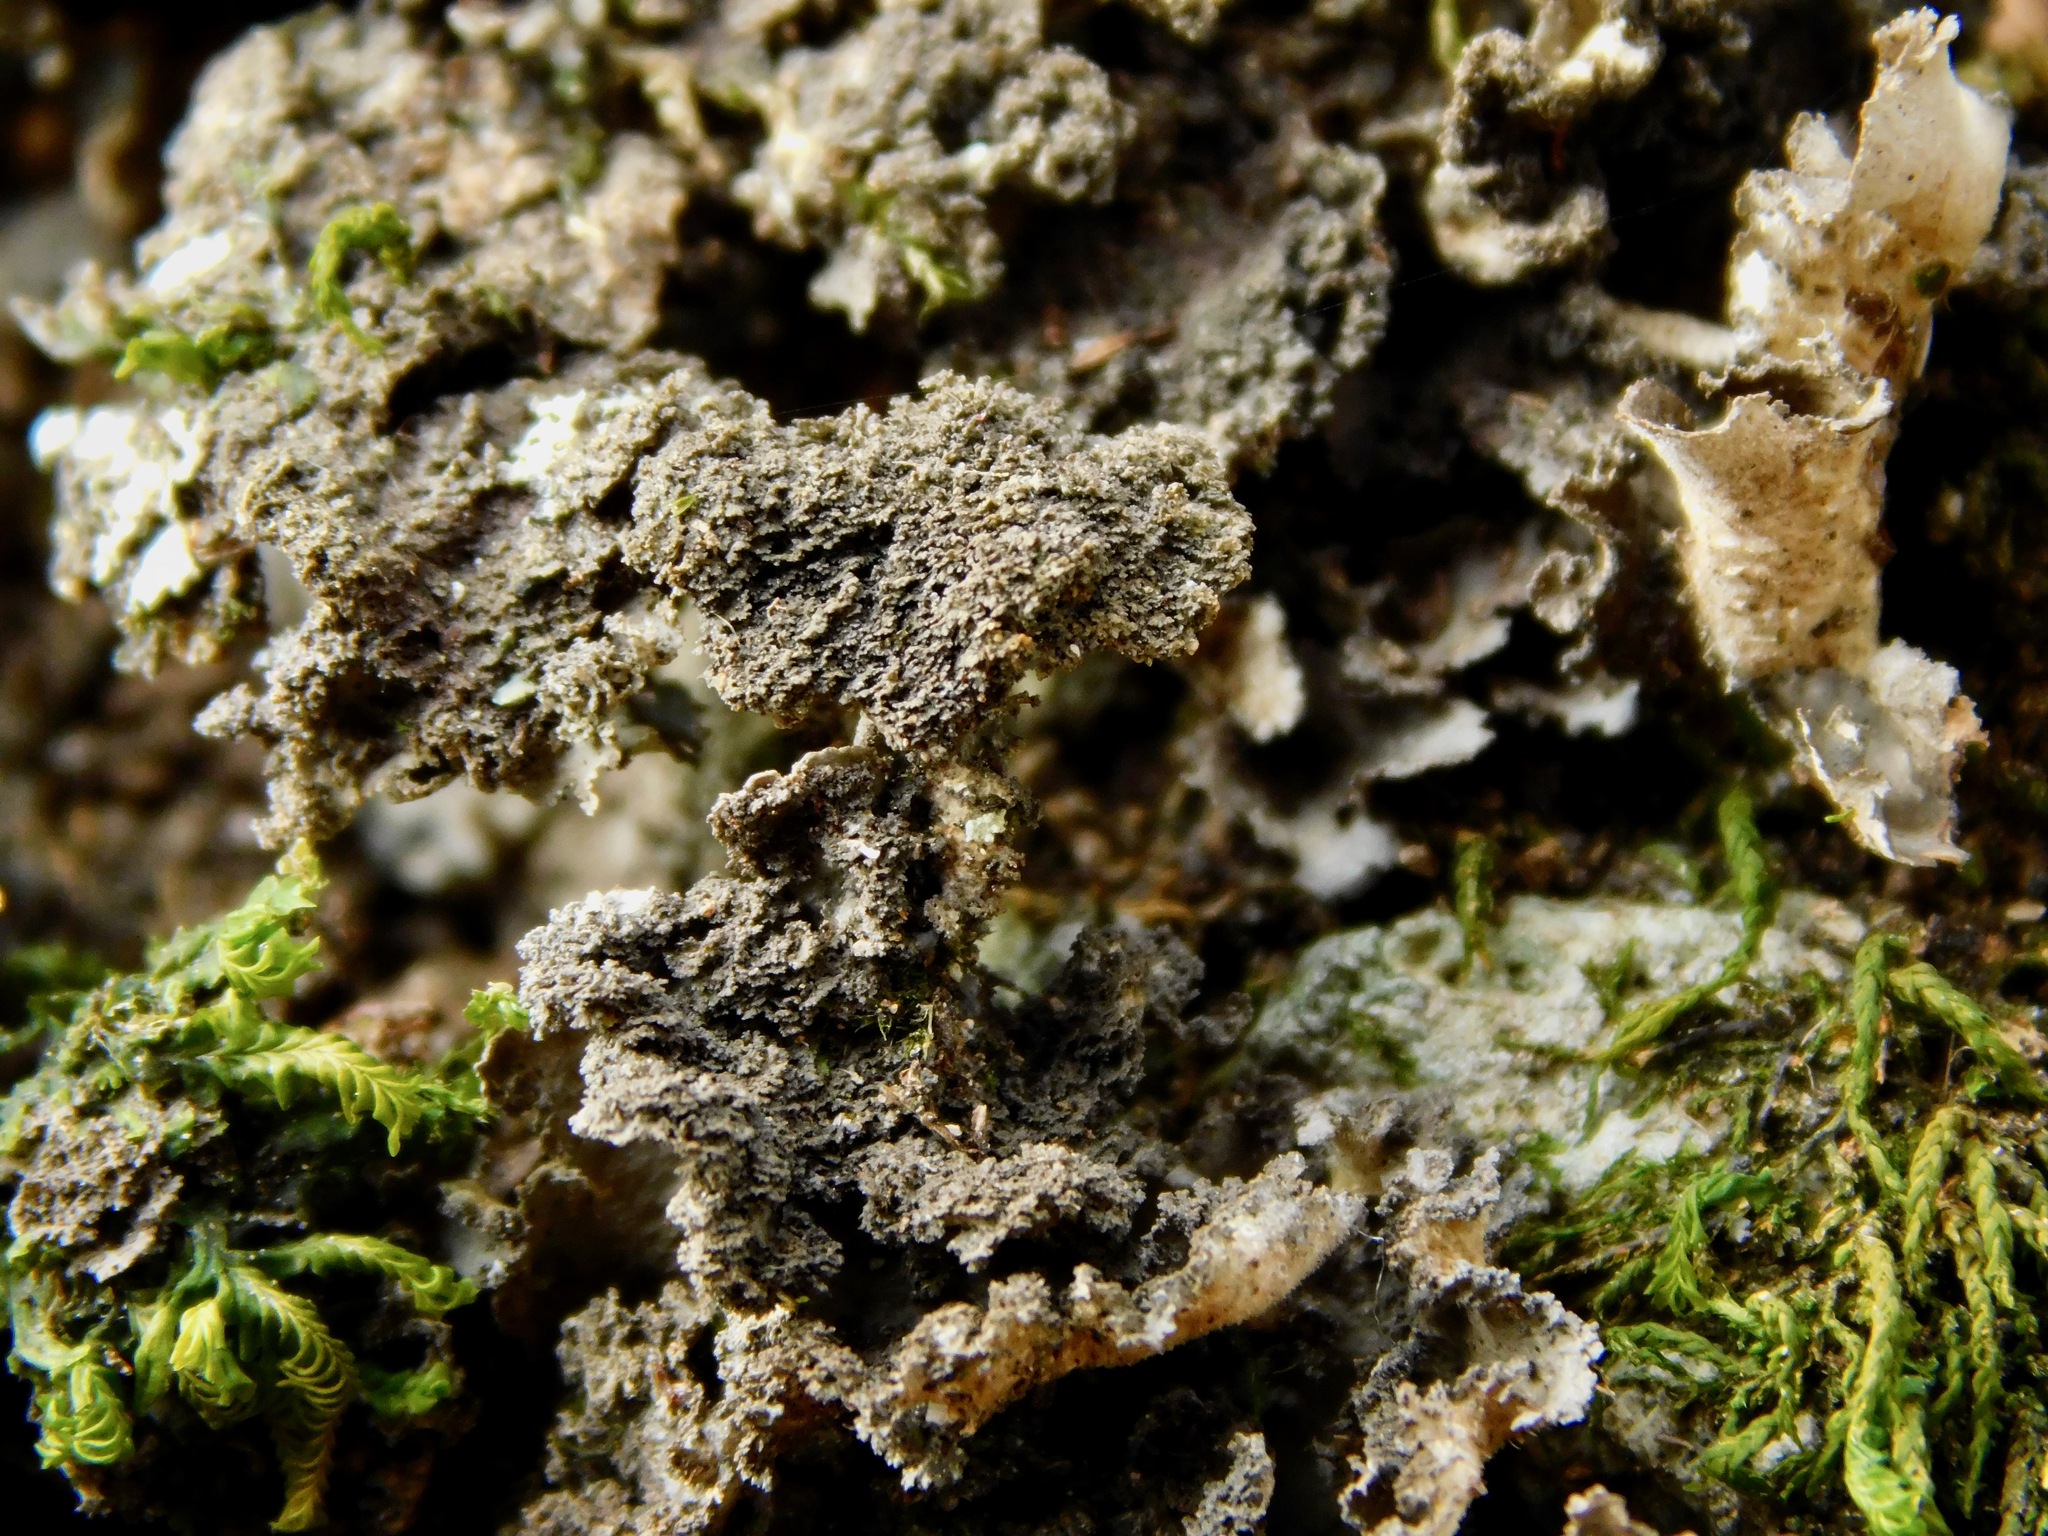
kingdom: Fungi
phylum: Ascomycota
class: Lecanoromycetes
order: Peltigerales
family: Lobariaceae
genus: Sticta
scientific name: Sticta carolinensis
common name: Carolina moon lichen
